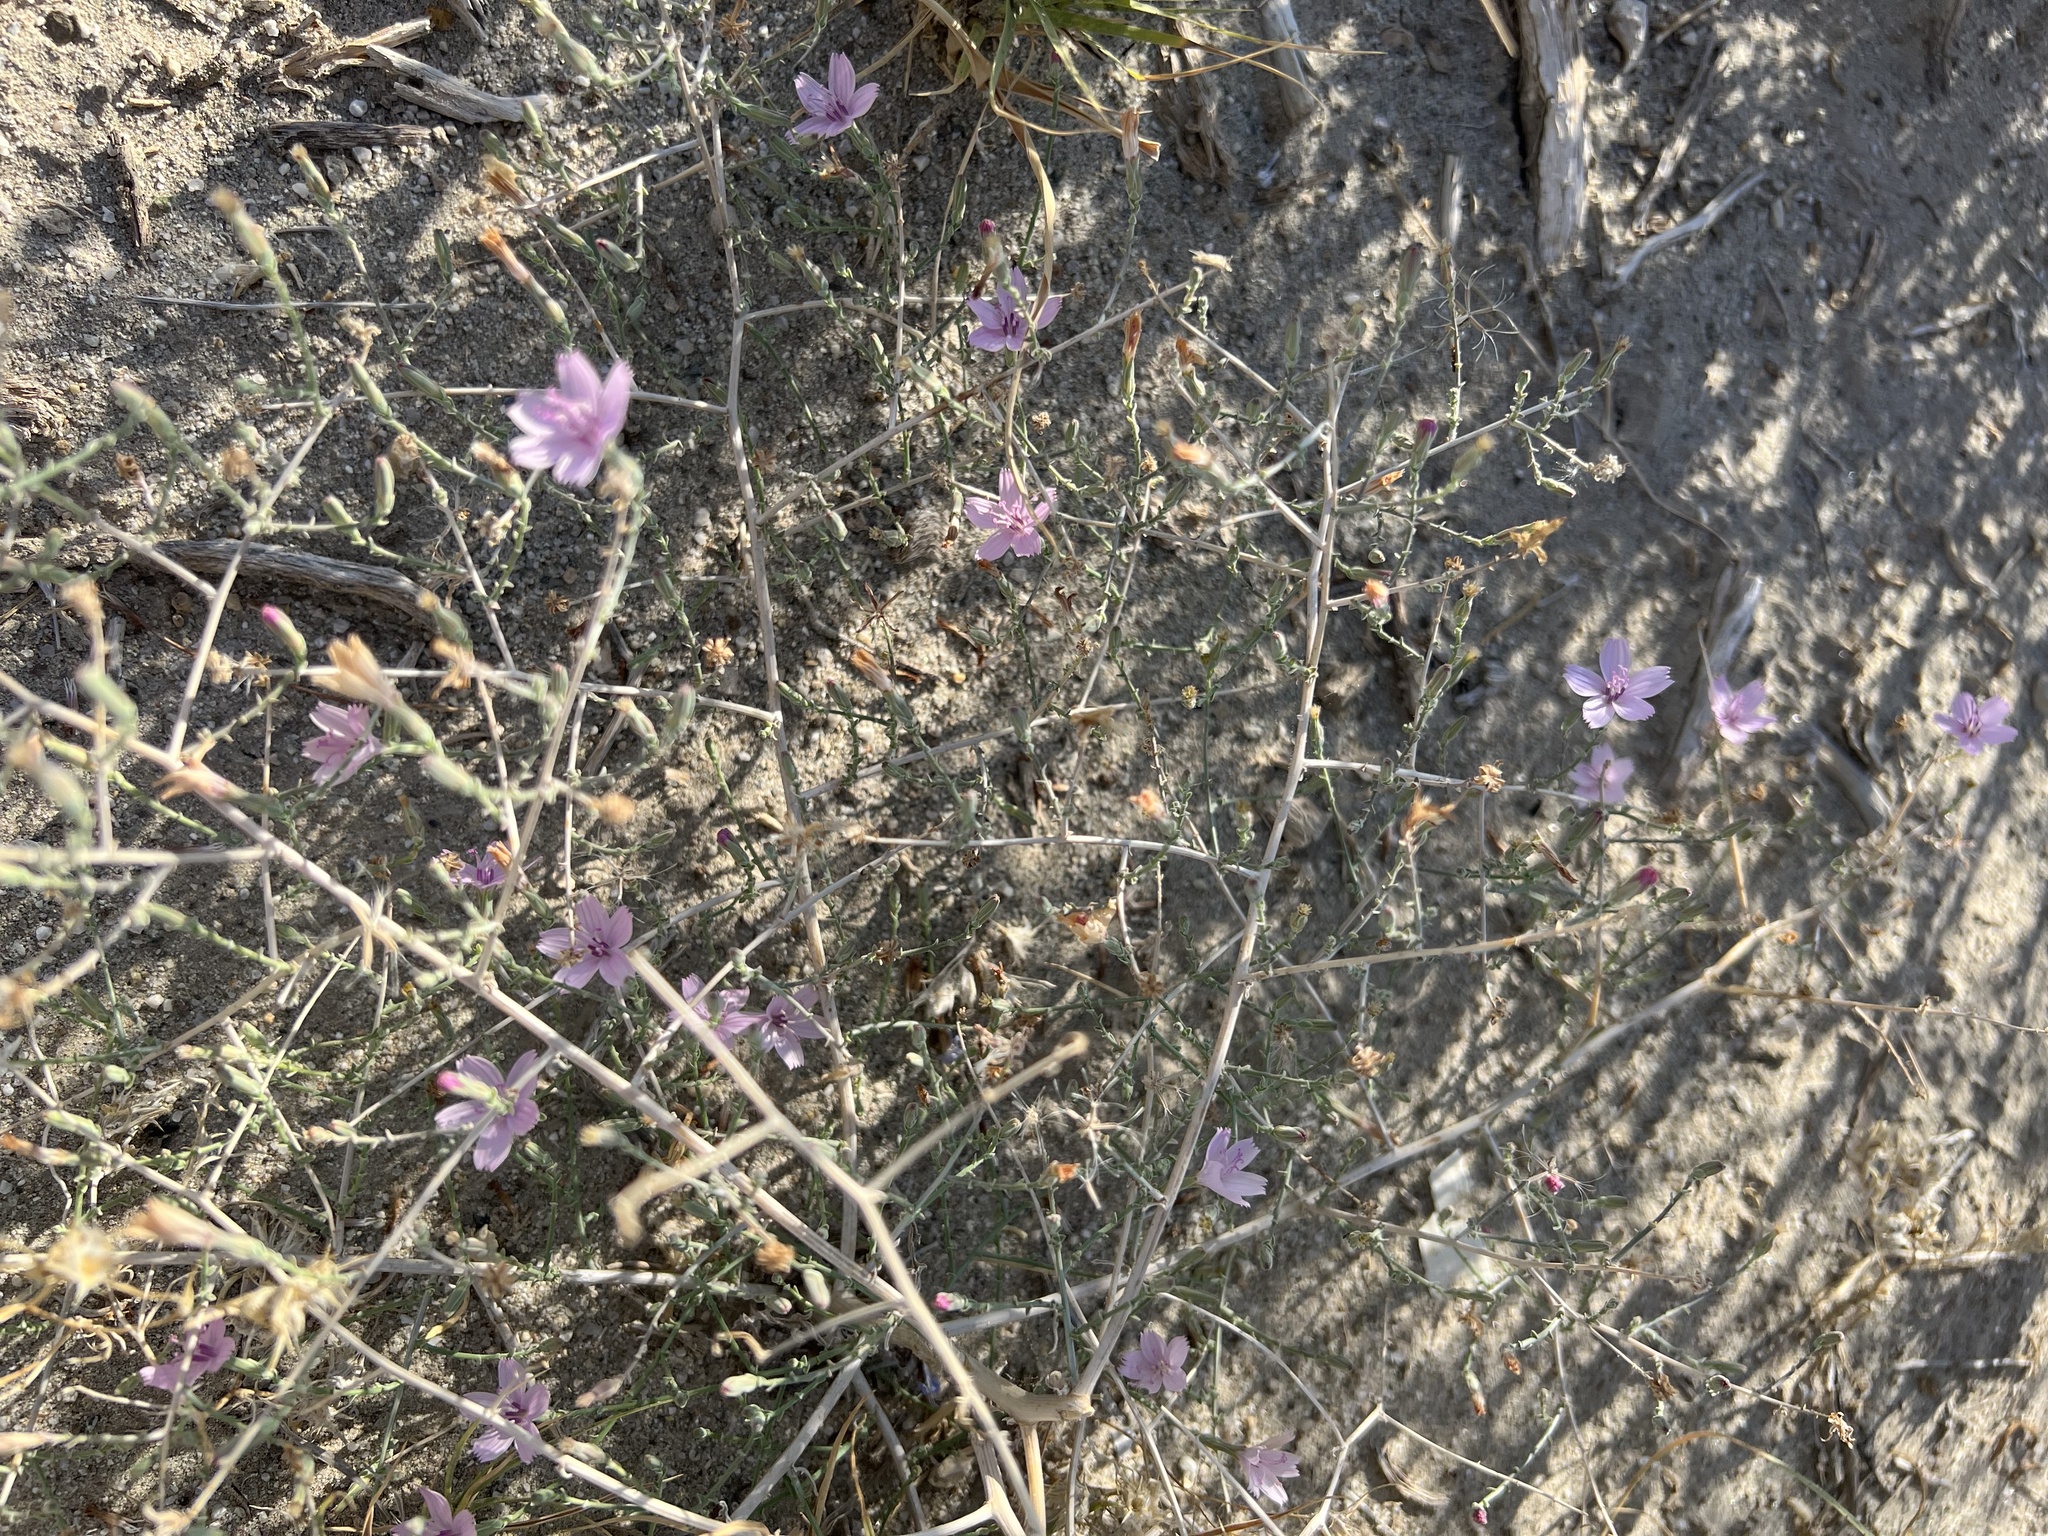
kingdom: Plantae
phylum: Tracheophyta
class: Magnoliopsida
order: Asterales
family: Asteraceae
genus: Stephanomeria
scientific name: Stephanomeria exigua
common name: Small wirelettuce
